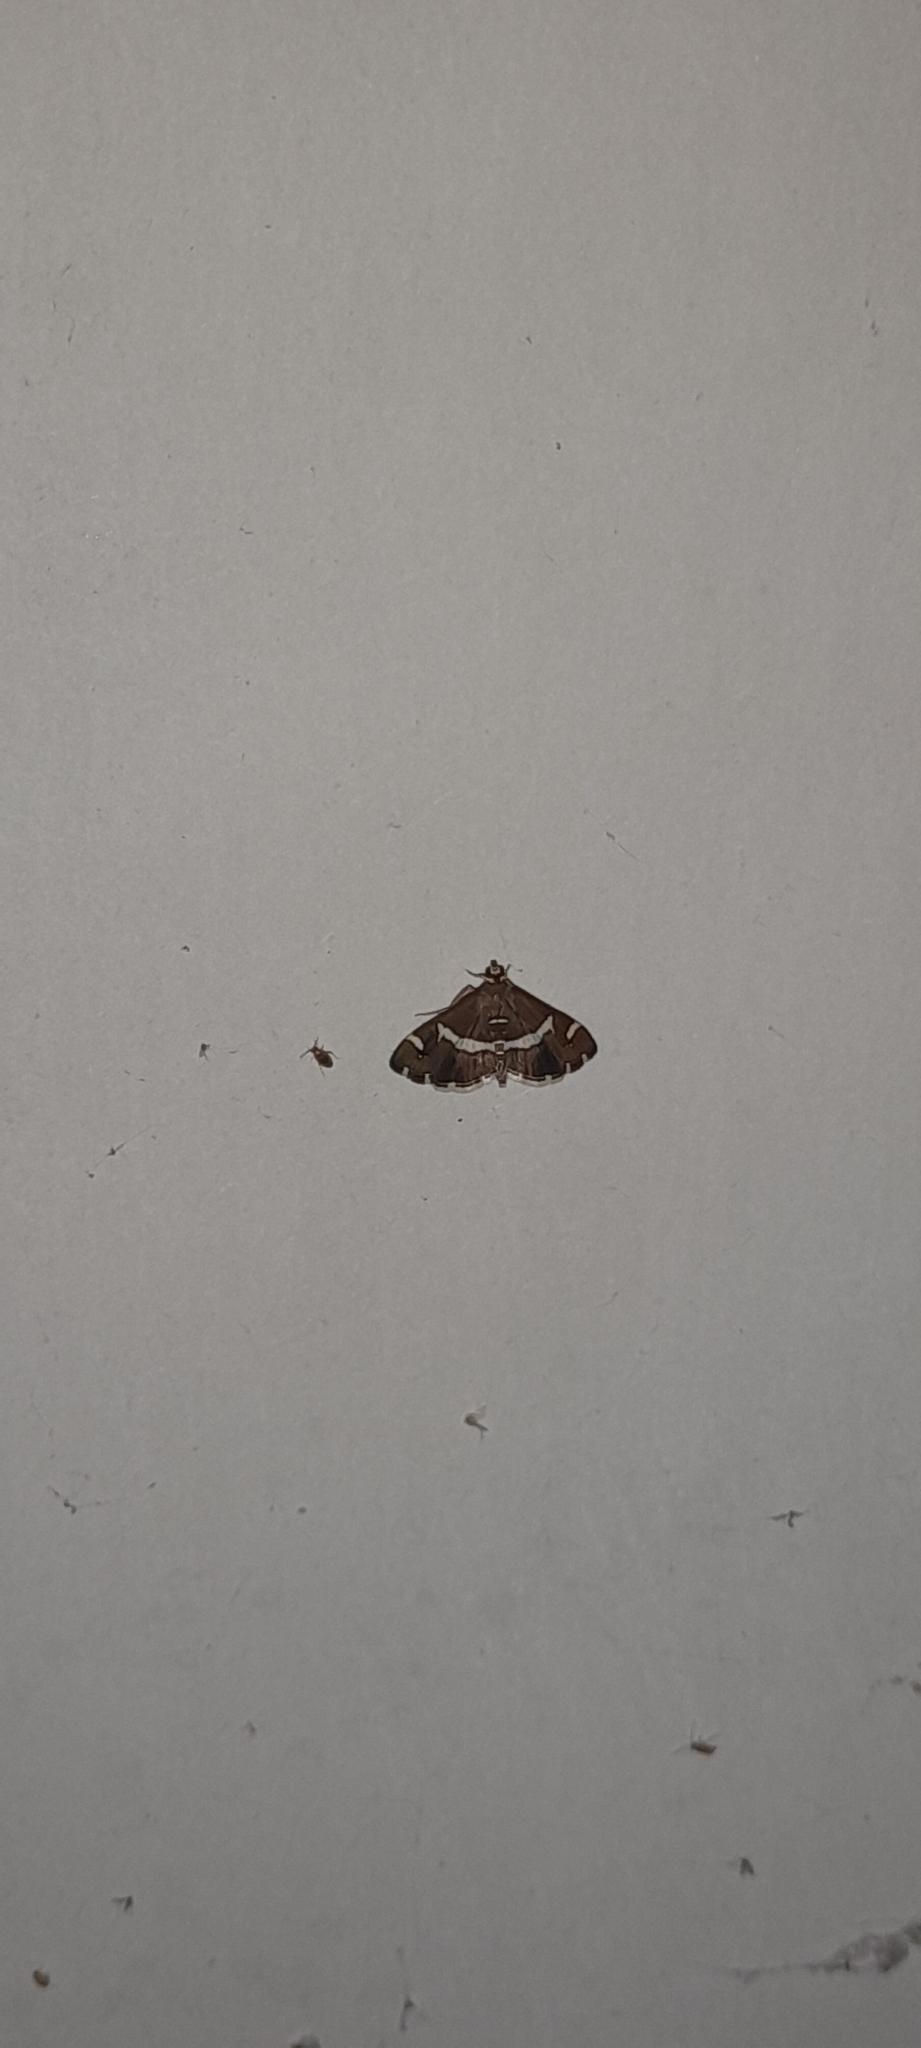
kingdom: Animalia
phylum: Arthropoda
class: Insecta
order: Lepidoptera
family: Crambidae
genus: Spoladea
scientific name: Spoladea recurvalis
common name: Beet webworm moth
